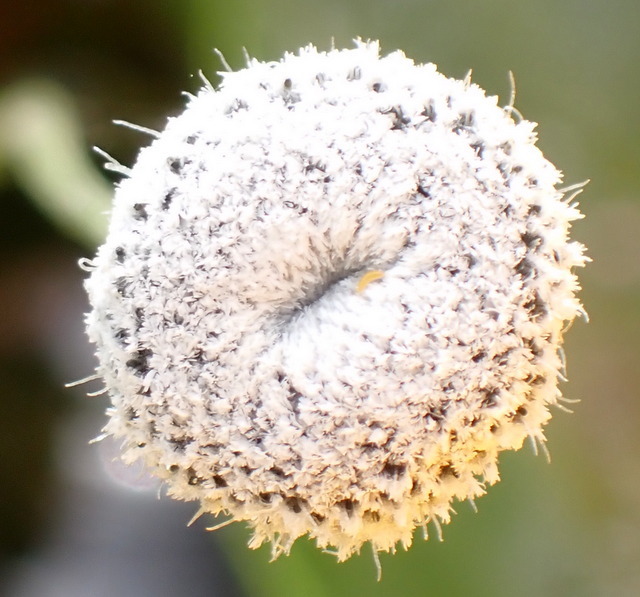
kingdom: Plantae
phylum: Tracheophyta
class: Liliopsida
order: Poales
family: Eriocaulaceae
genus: Eriocaulon
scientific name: Eriocaulon compressum
